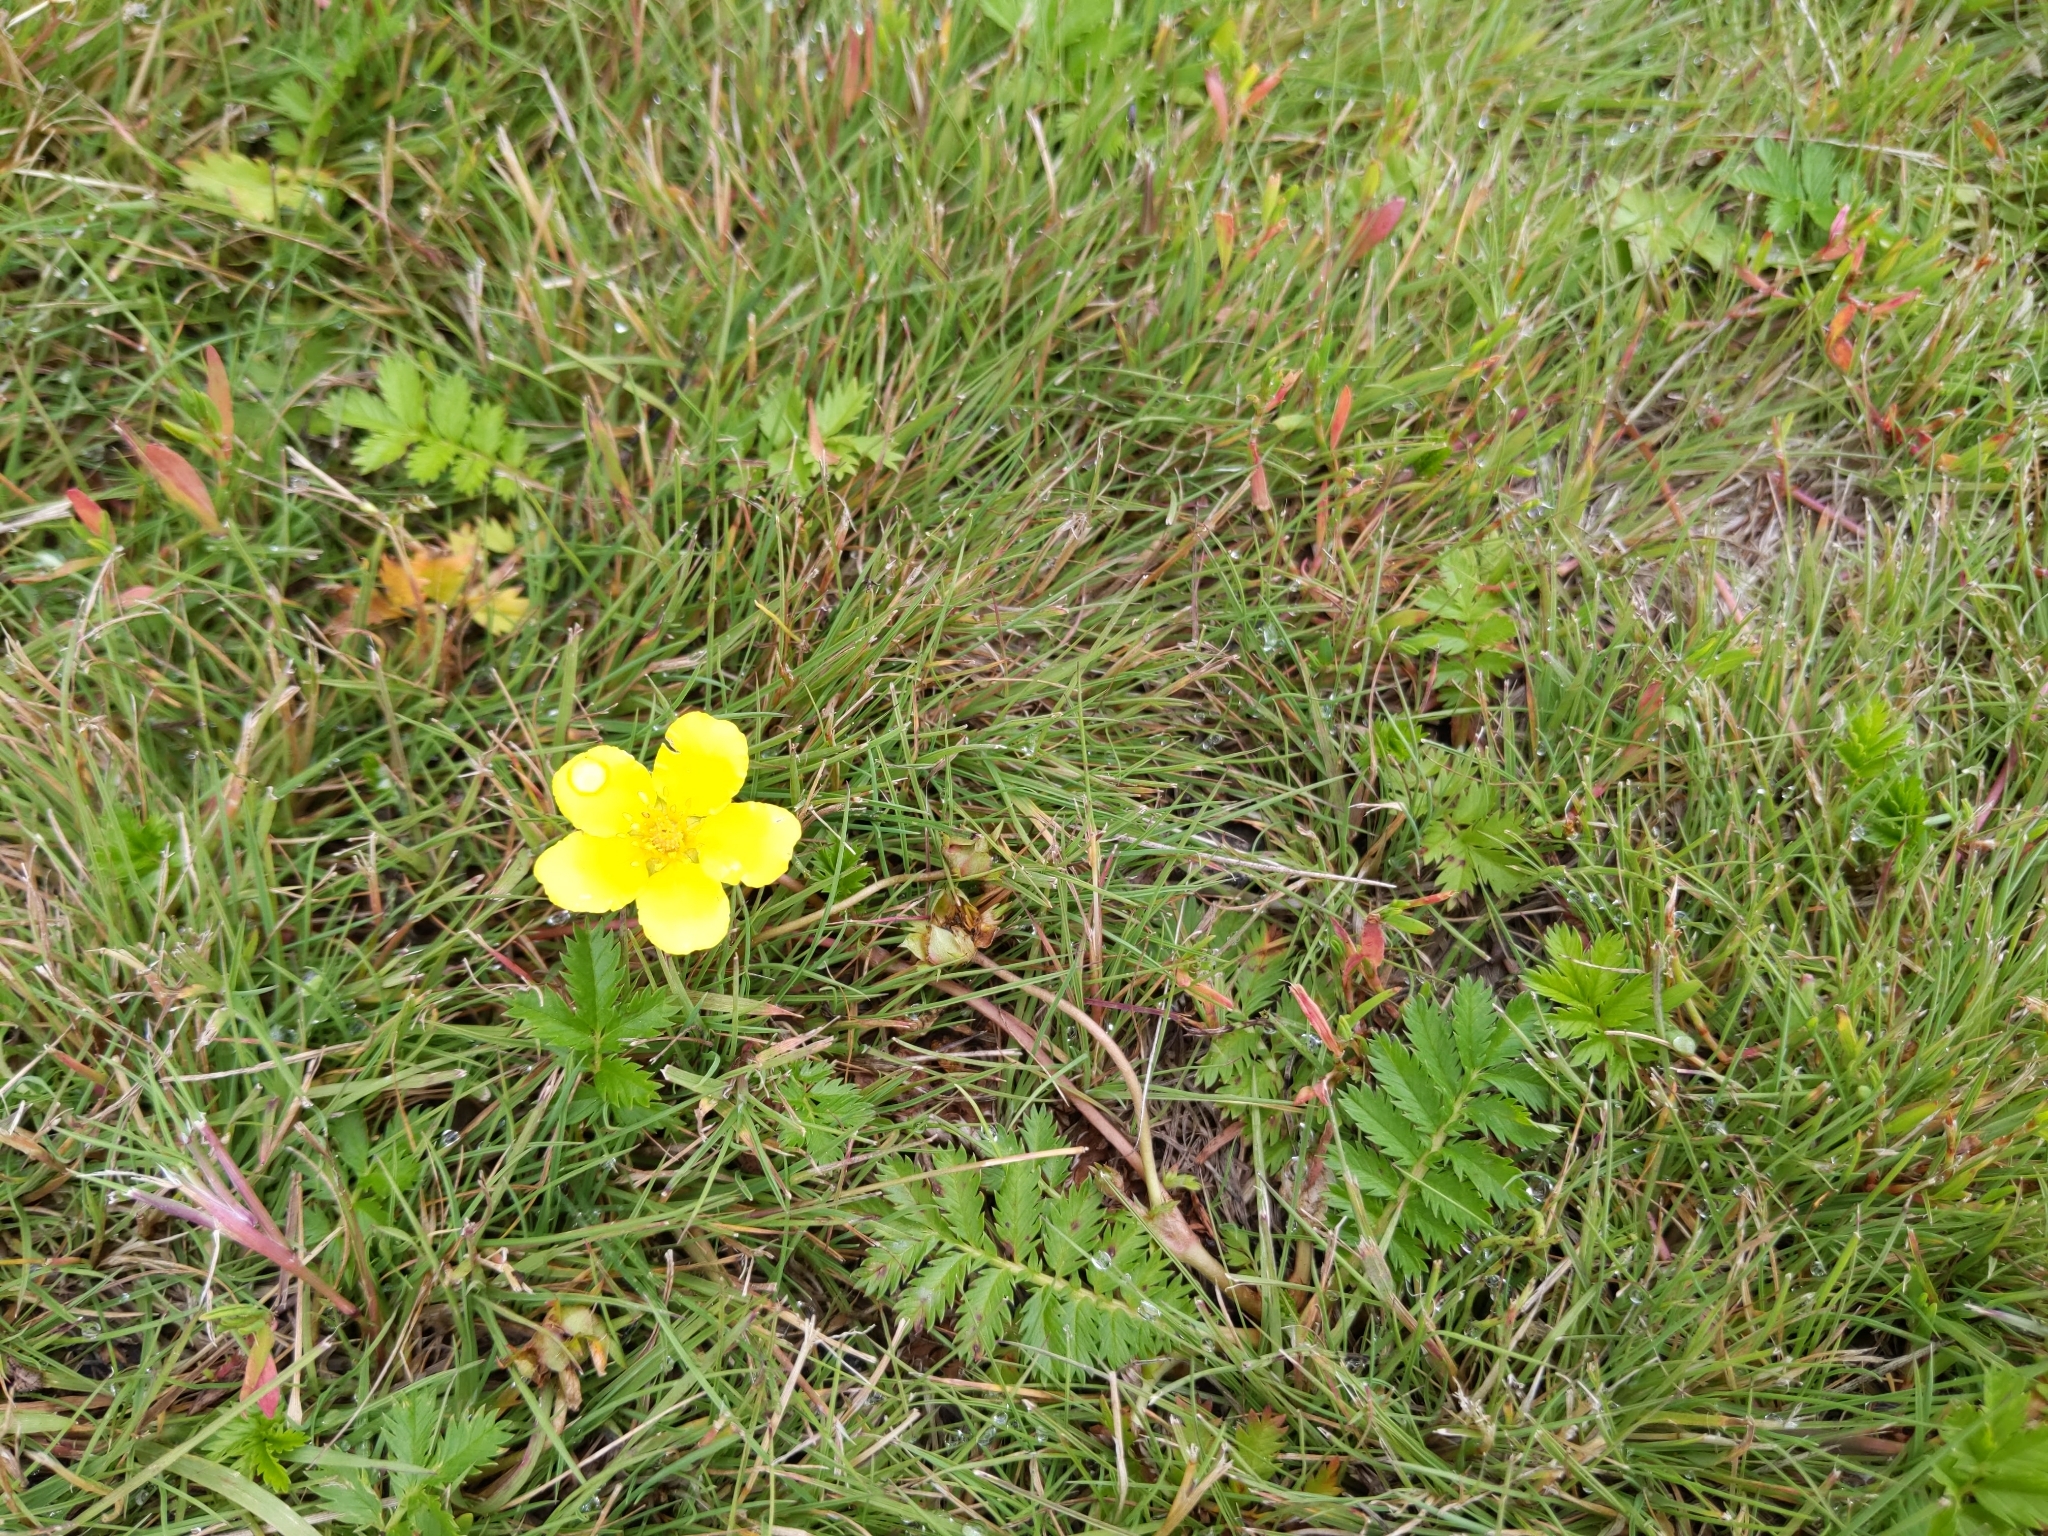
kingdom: Plantae
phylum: Tracheophyta
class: Magnoliopsida
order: Rosales
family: Rosaceae
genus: Argentina
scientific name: Argentina anserina
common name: Common silverweed
